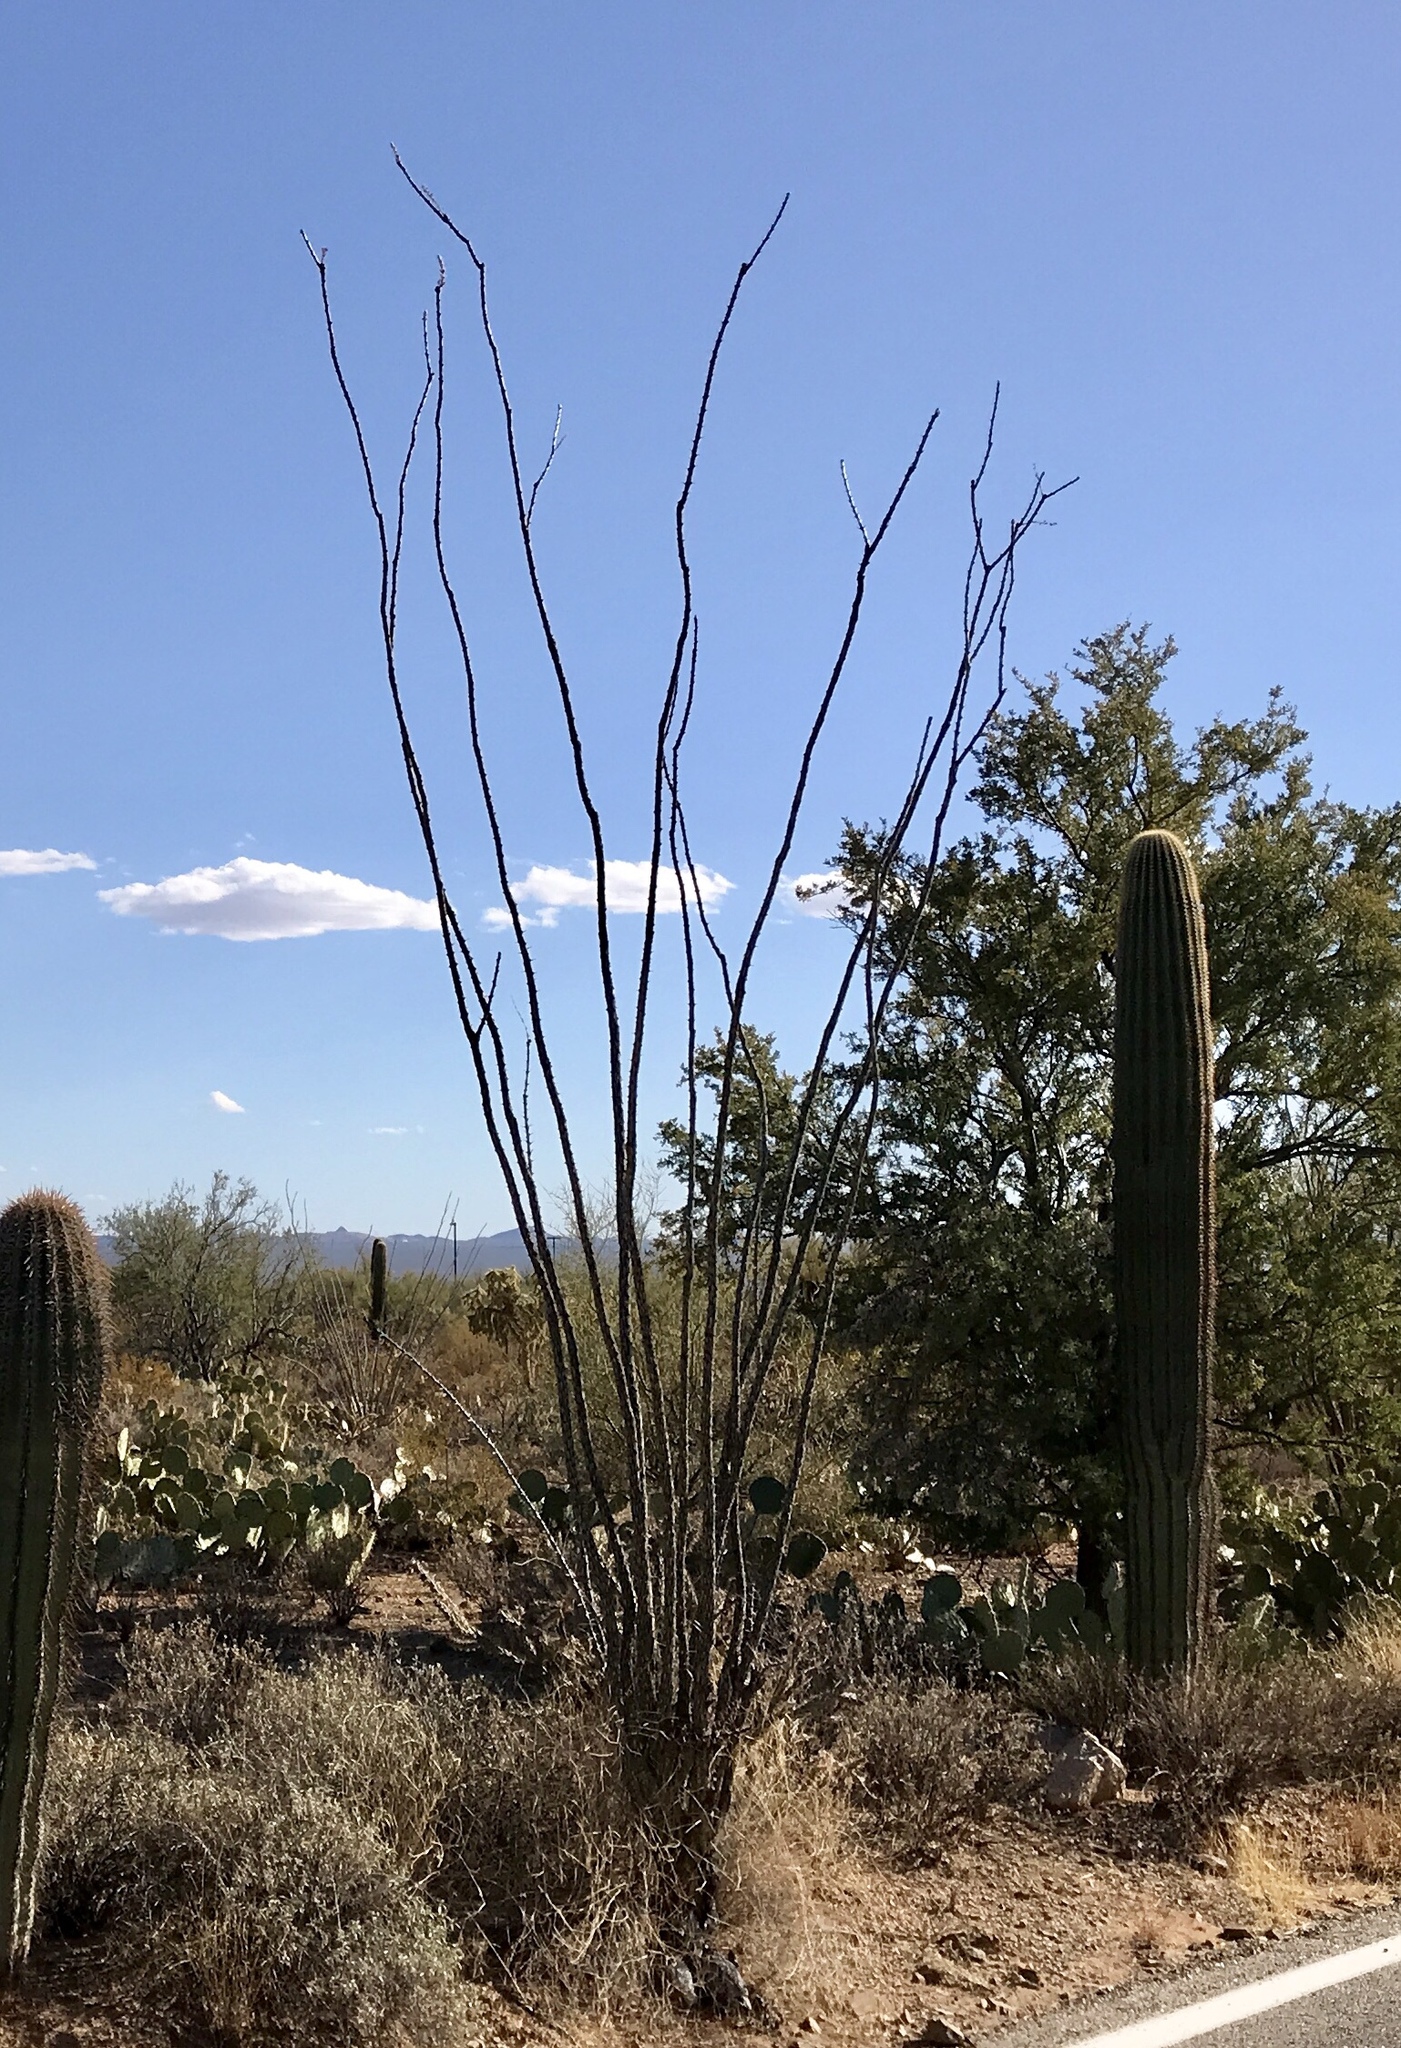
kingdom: Plantae
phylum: Tracheophyta
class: Magnoliopsida
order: Ericales
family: Fouquieriaceae
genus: Fouquieria
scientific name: Fouquieria splendens
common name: Vine-cactus
